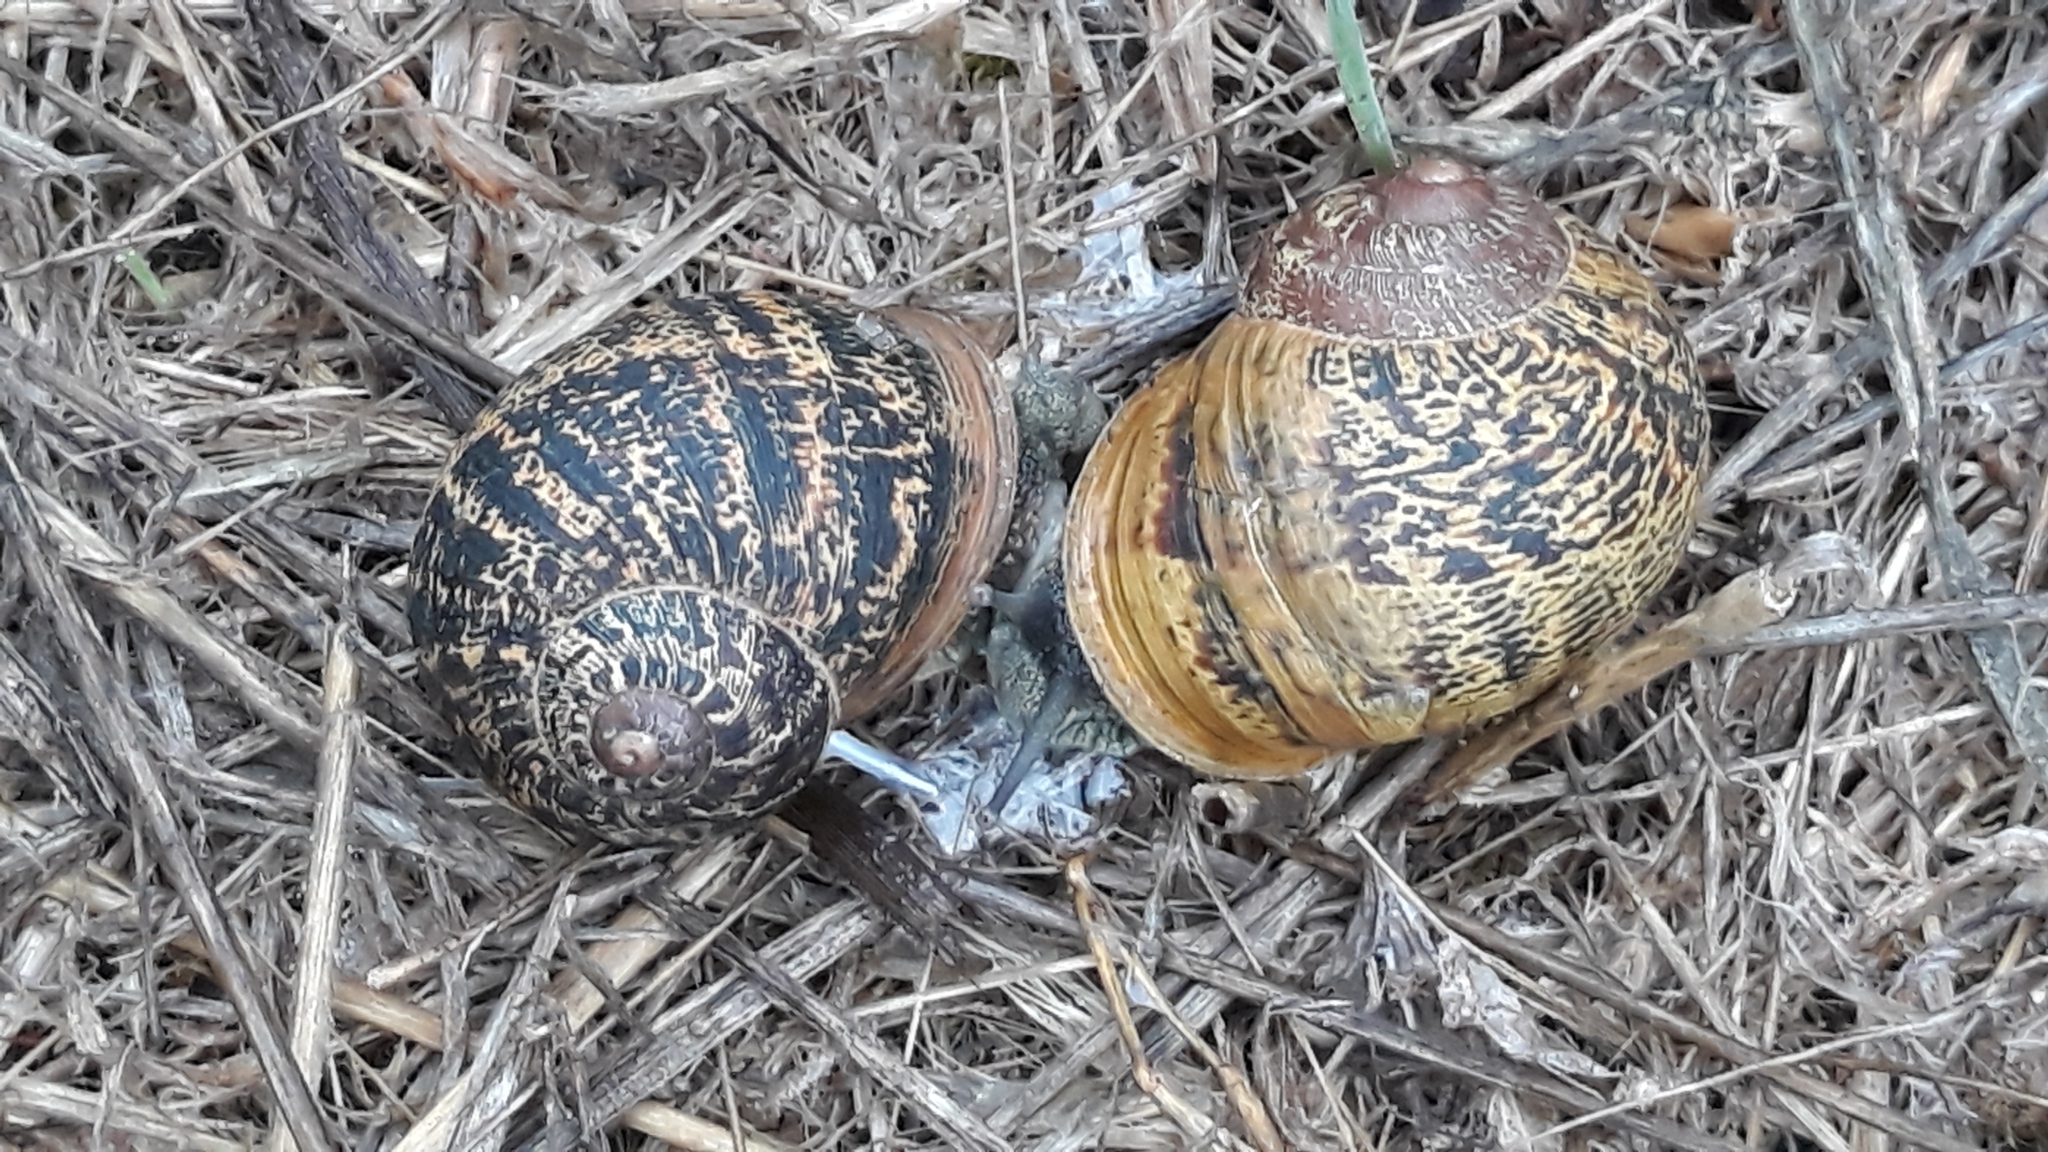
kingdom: Animalia
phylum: Mollusca
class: Gastropoda
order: Stylommatophora
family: Helicidae
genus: Cornu
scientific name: Cornu aspersum
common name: Brown garden snail
